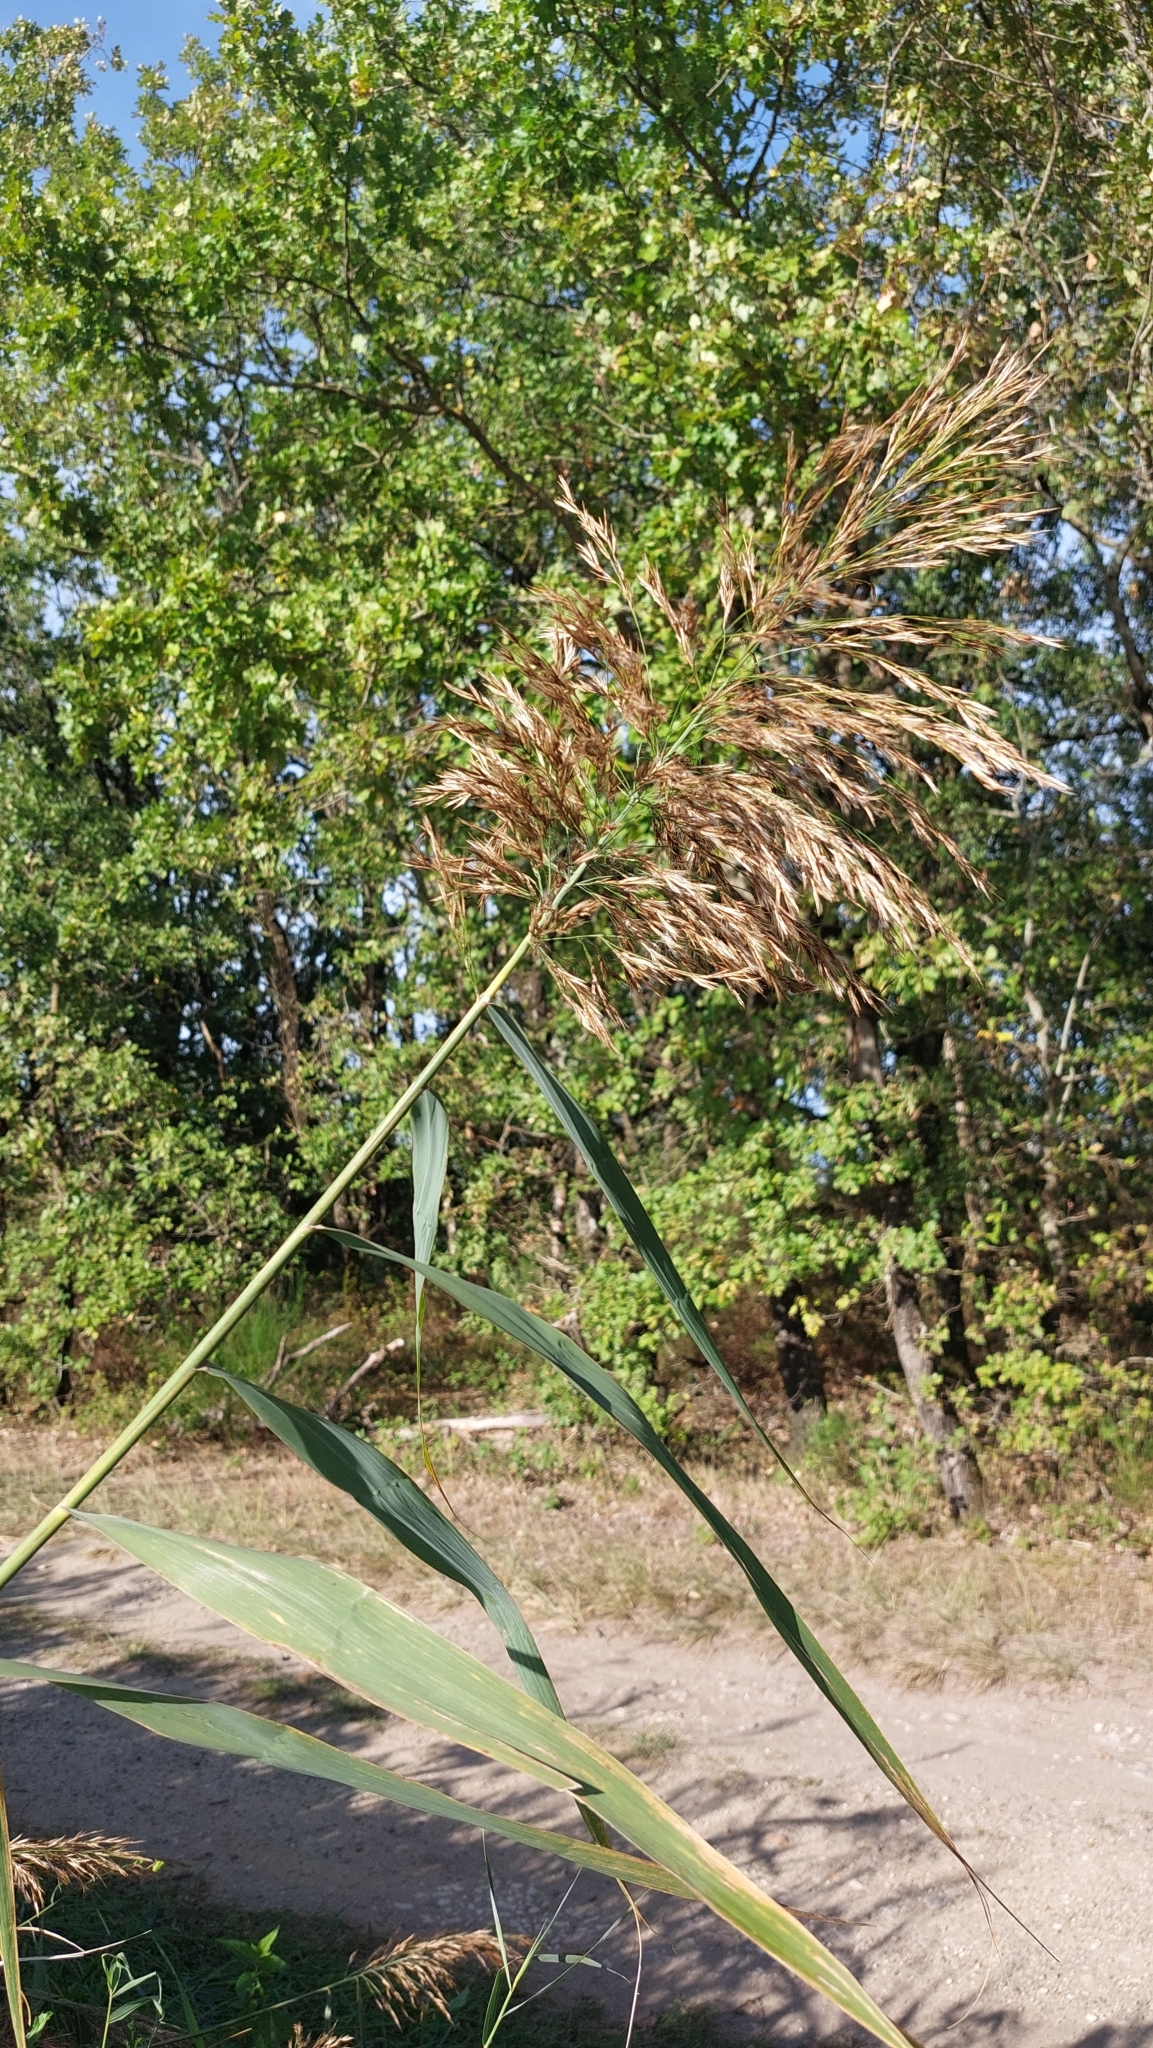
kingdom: Plantae
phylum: Tracheophyta
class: Liliopsida
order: Poales
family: Poaceae
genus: Phragmites
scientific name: Phragmites australis
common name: Common reed
